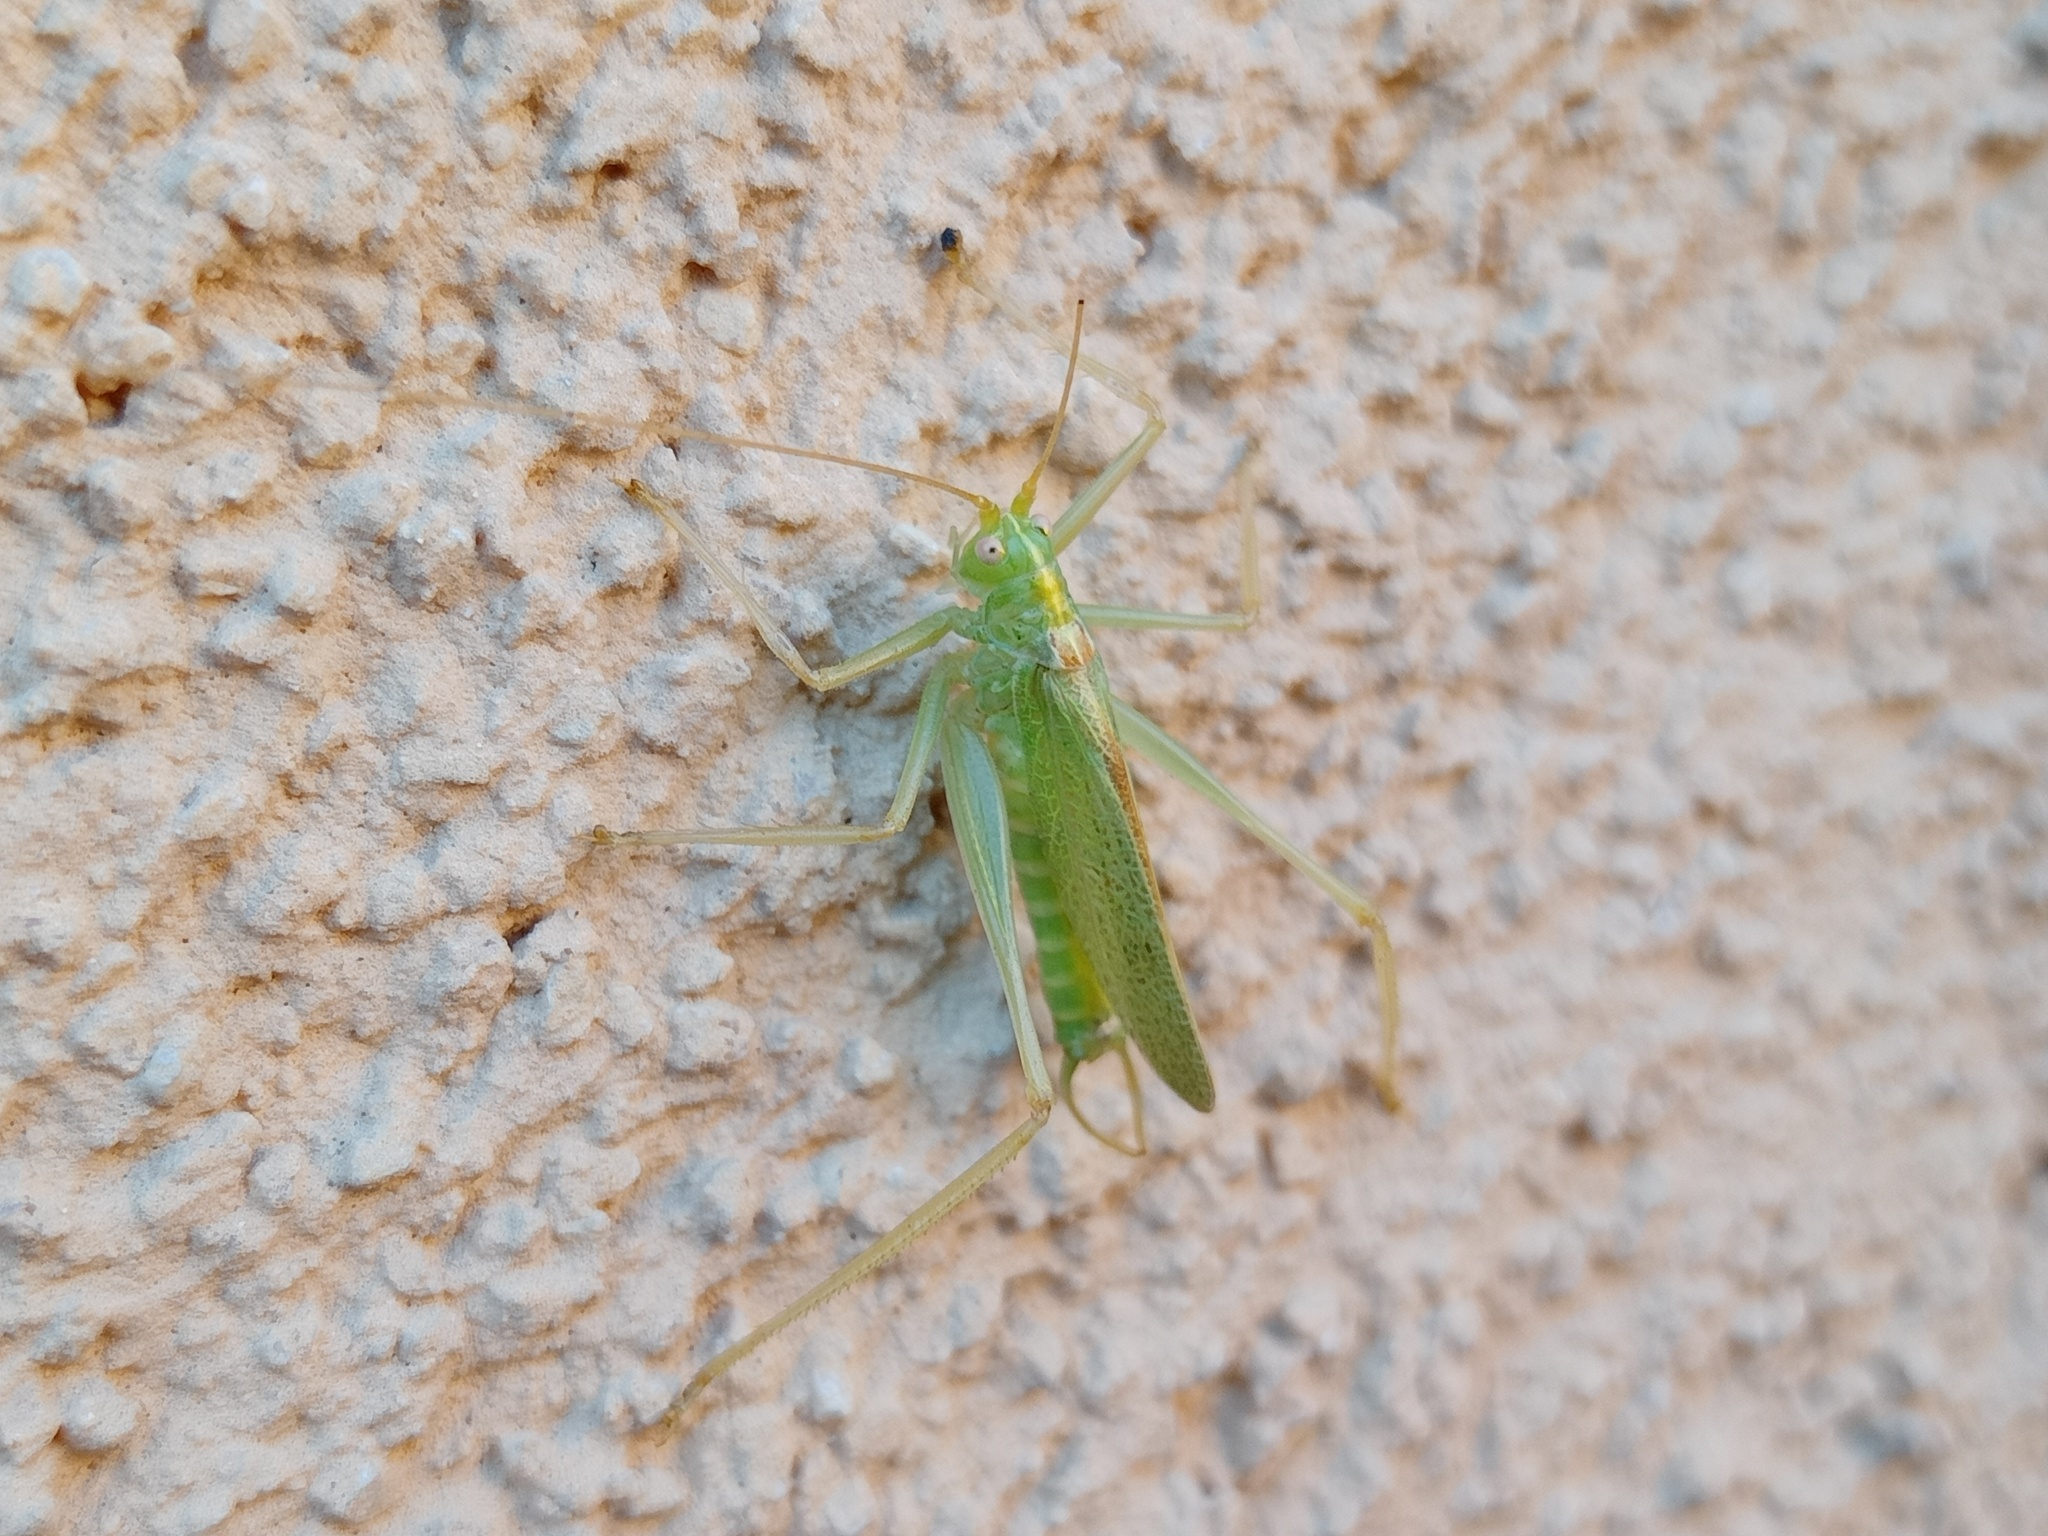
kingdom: Animalia
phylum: Arthropoda
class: Insecta
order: Orthoptera
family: Tettigoniidae
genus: Meconema
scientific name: Meconema thalassinum
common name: Oak bush-cricket
